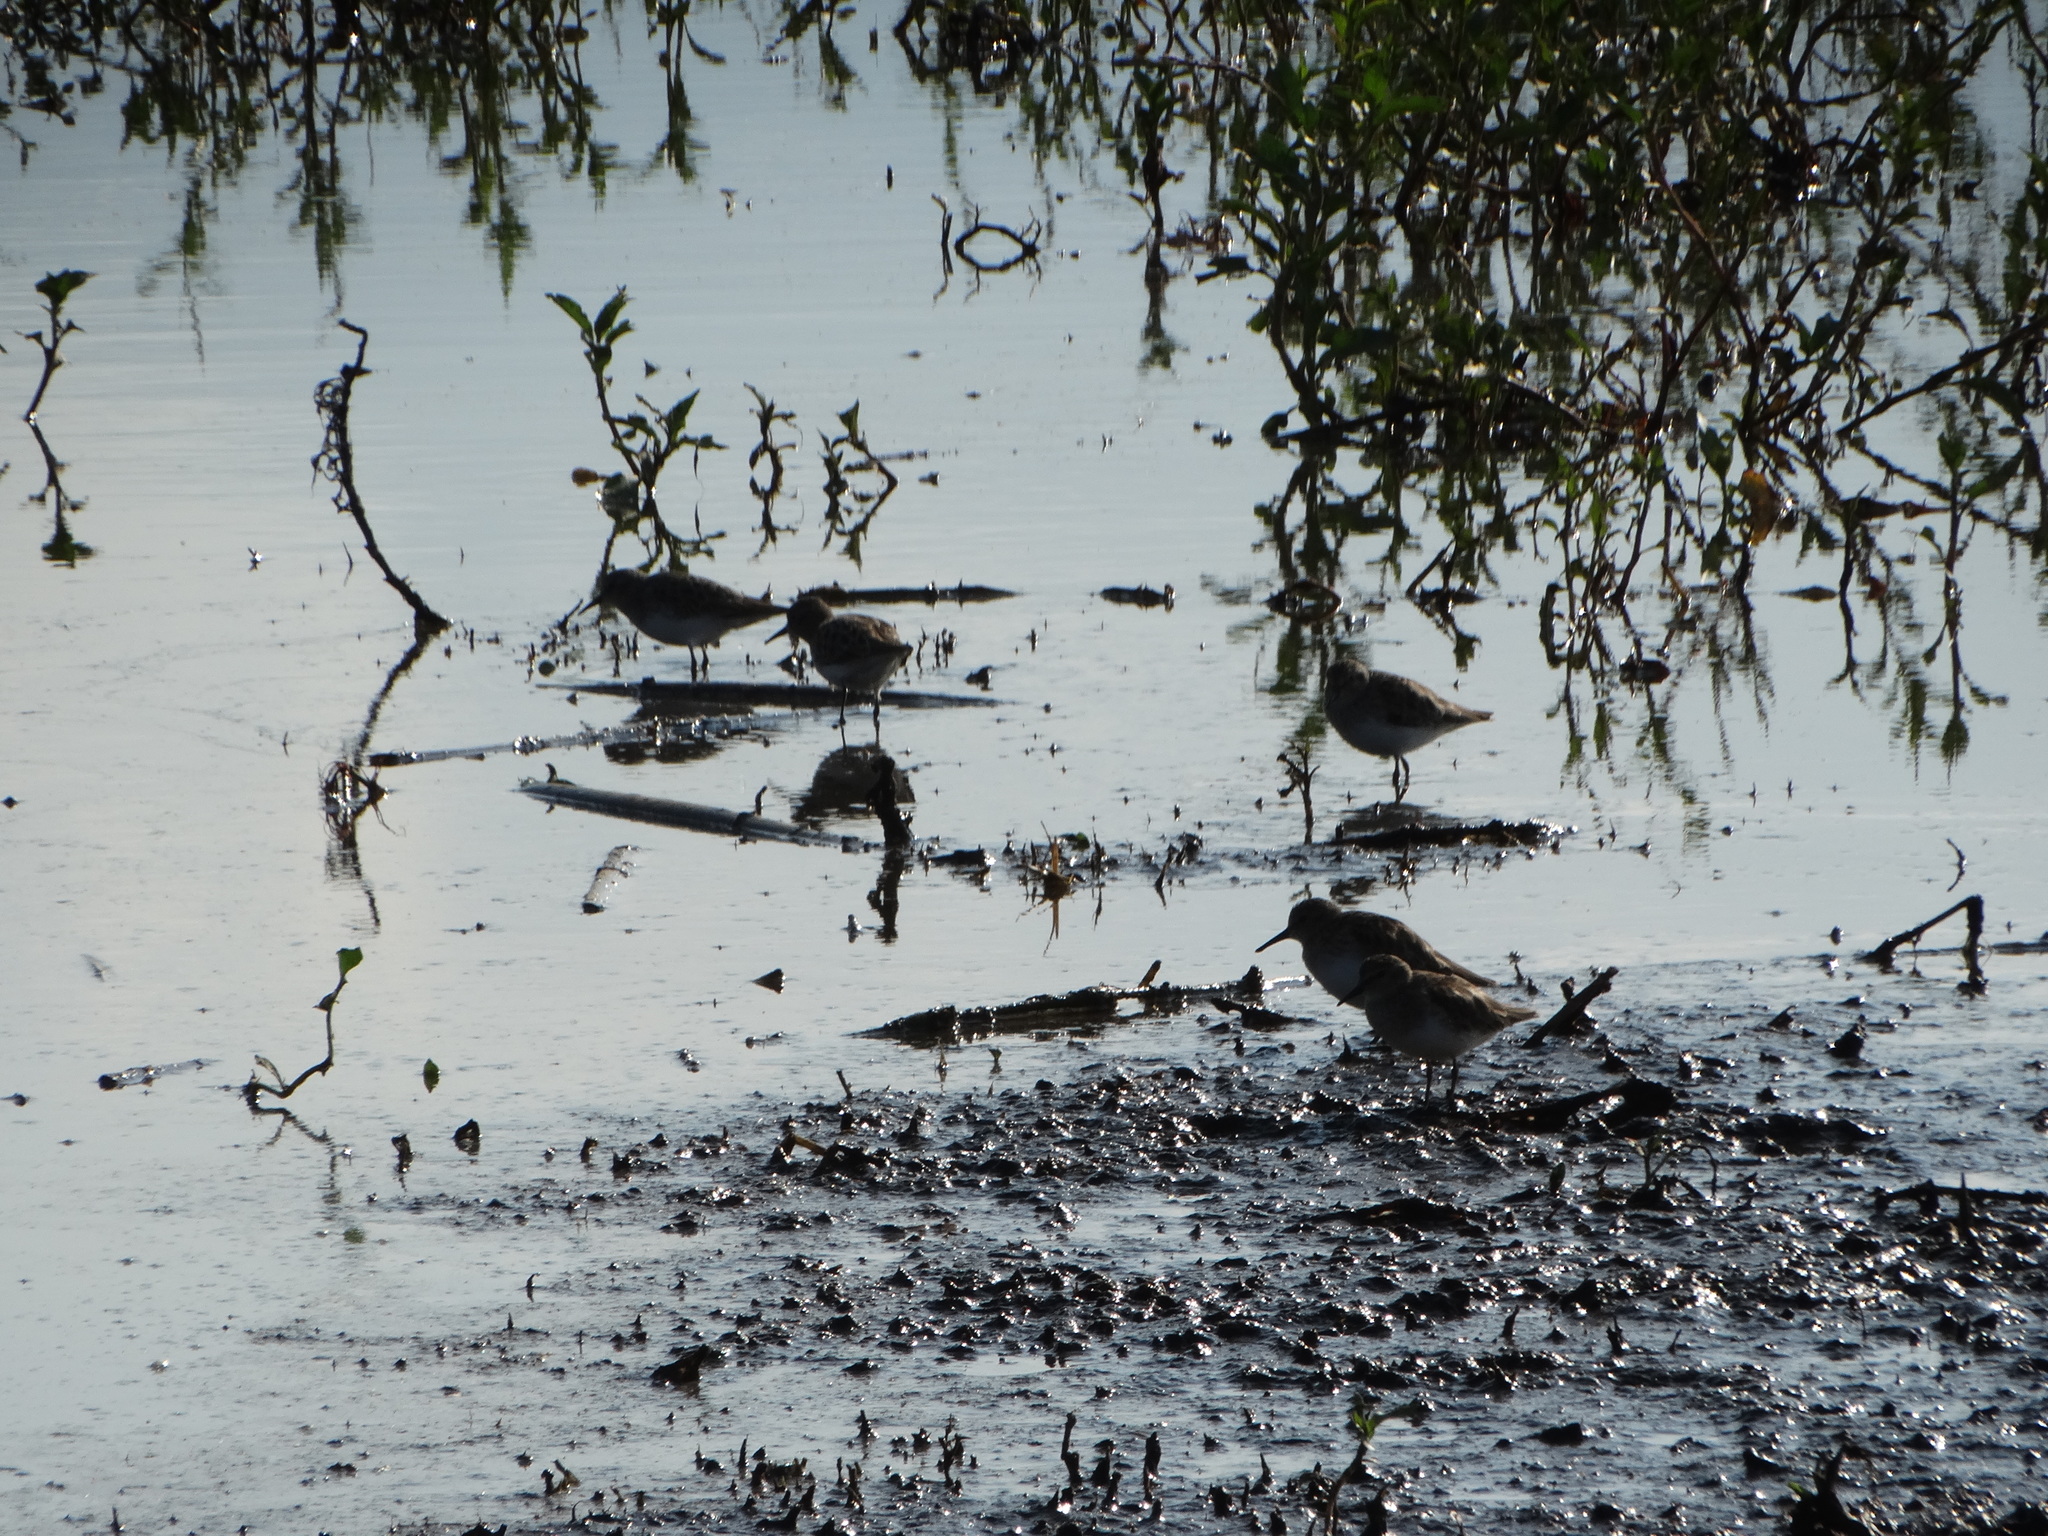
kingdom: Animalia
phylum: Chordata
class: Aves
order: Charadriiformes
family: Scolopacidae
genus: Calidris
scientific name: Calidris minutilla
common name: Least sandpiper
